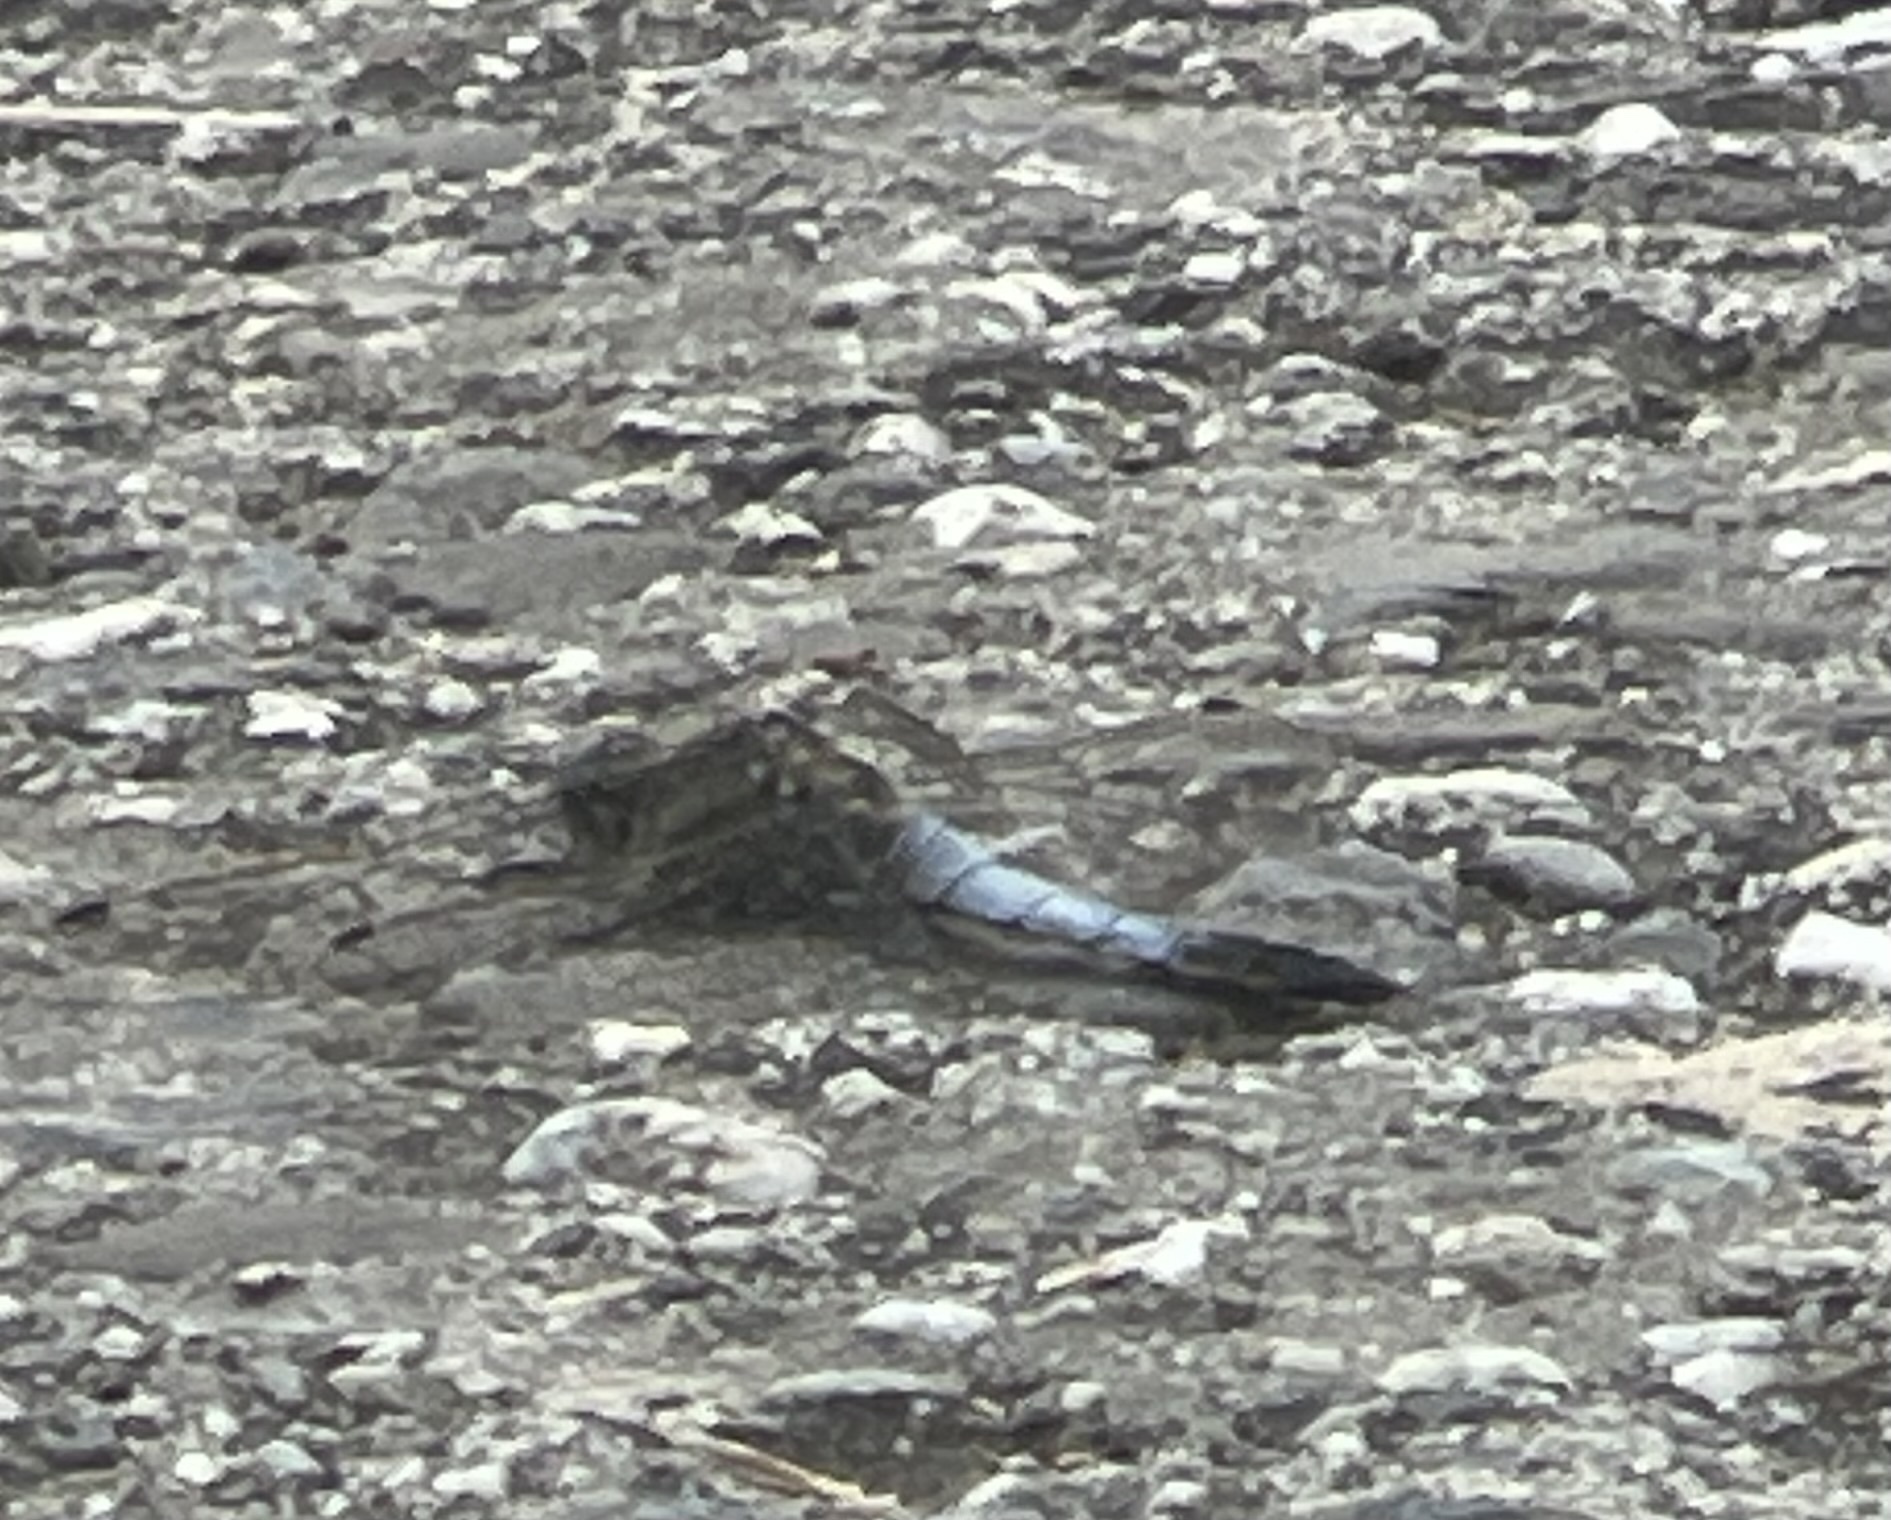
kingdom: Animalia
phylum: Arthropoda
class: Insecta
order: Odonata
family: Libellulidae
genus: Orthetrum
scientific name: Orthetrum cancellatum
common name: Black-tailed skimmer
